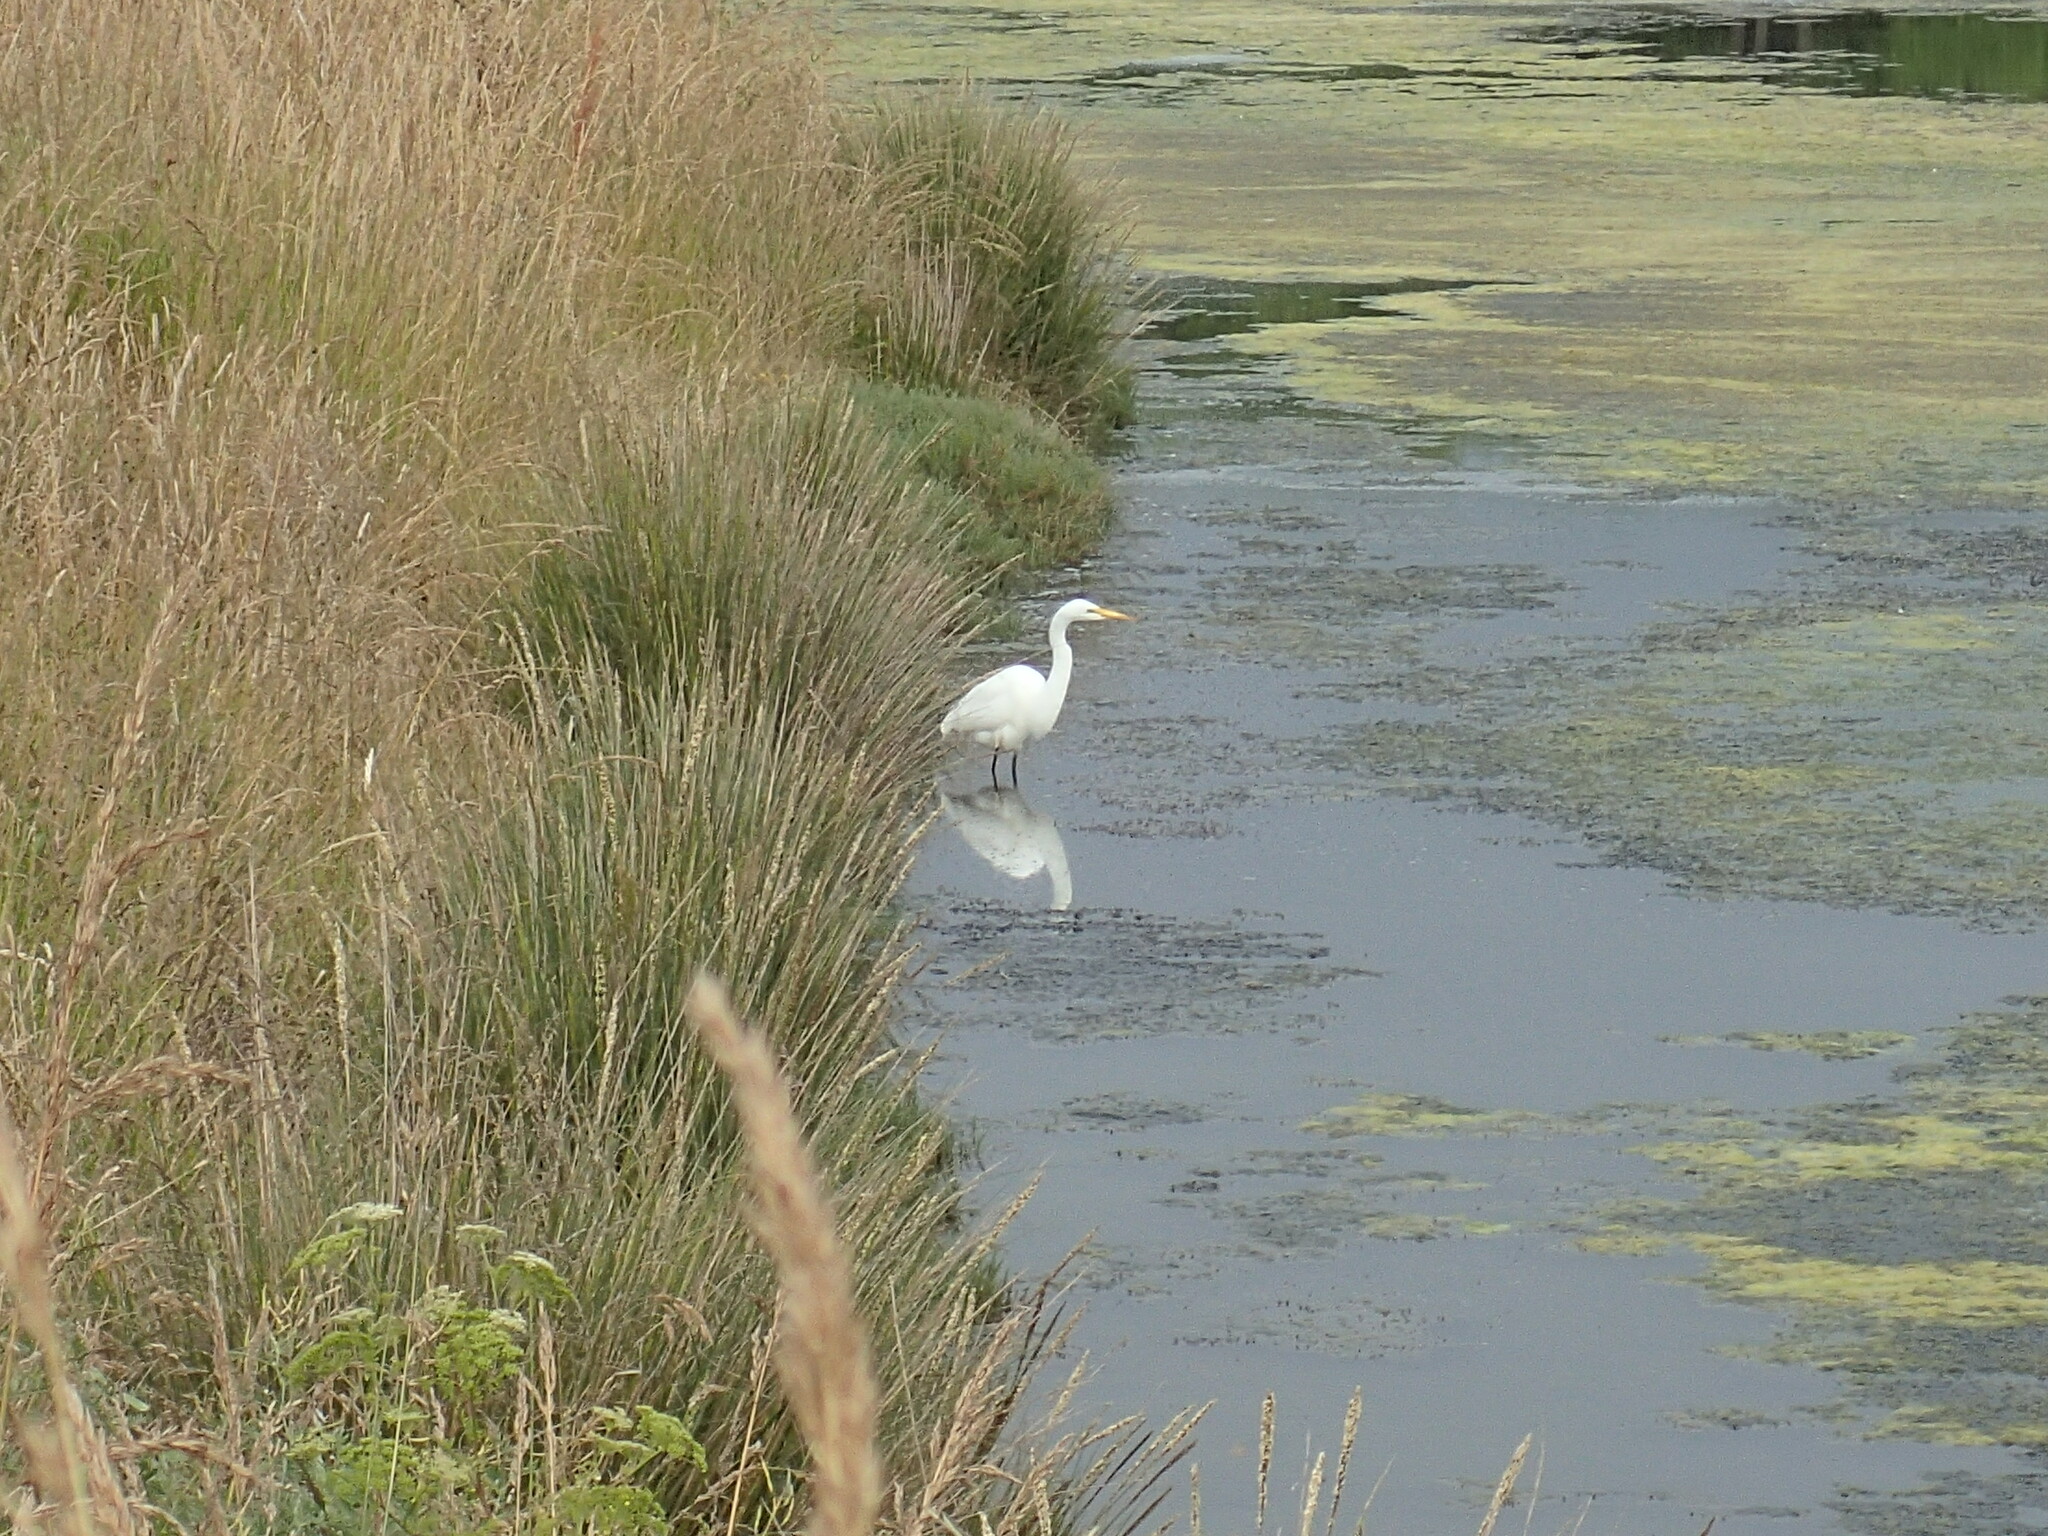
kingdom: Animalia
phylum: Chordata
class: Aves
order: Pelecaniformes
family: Ardeidae
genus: Ardea
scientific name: Ardea alba
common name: Great egret
